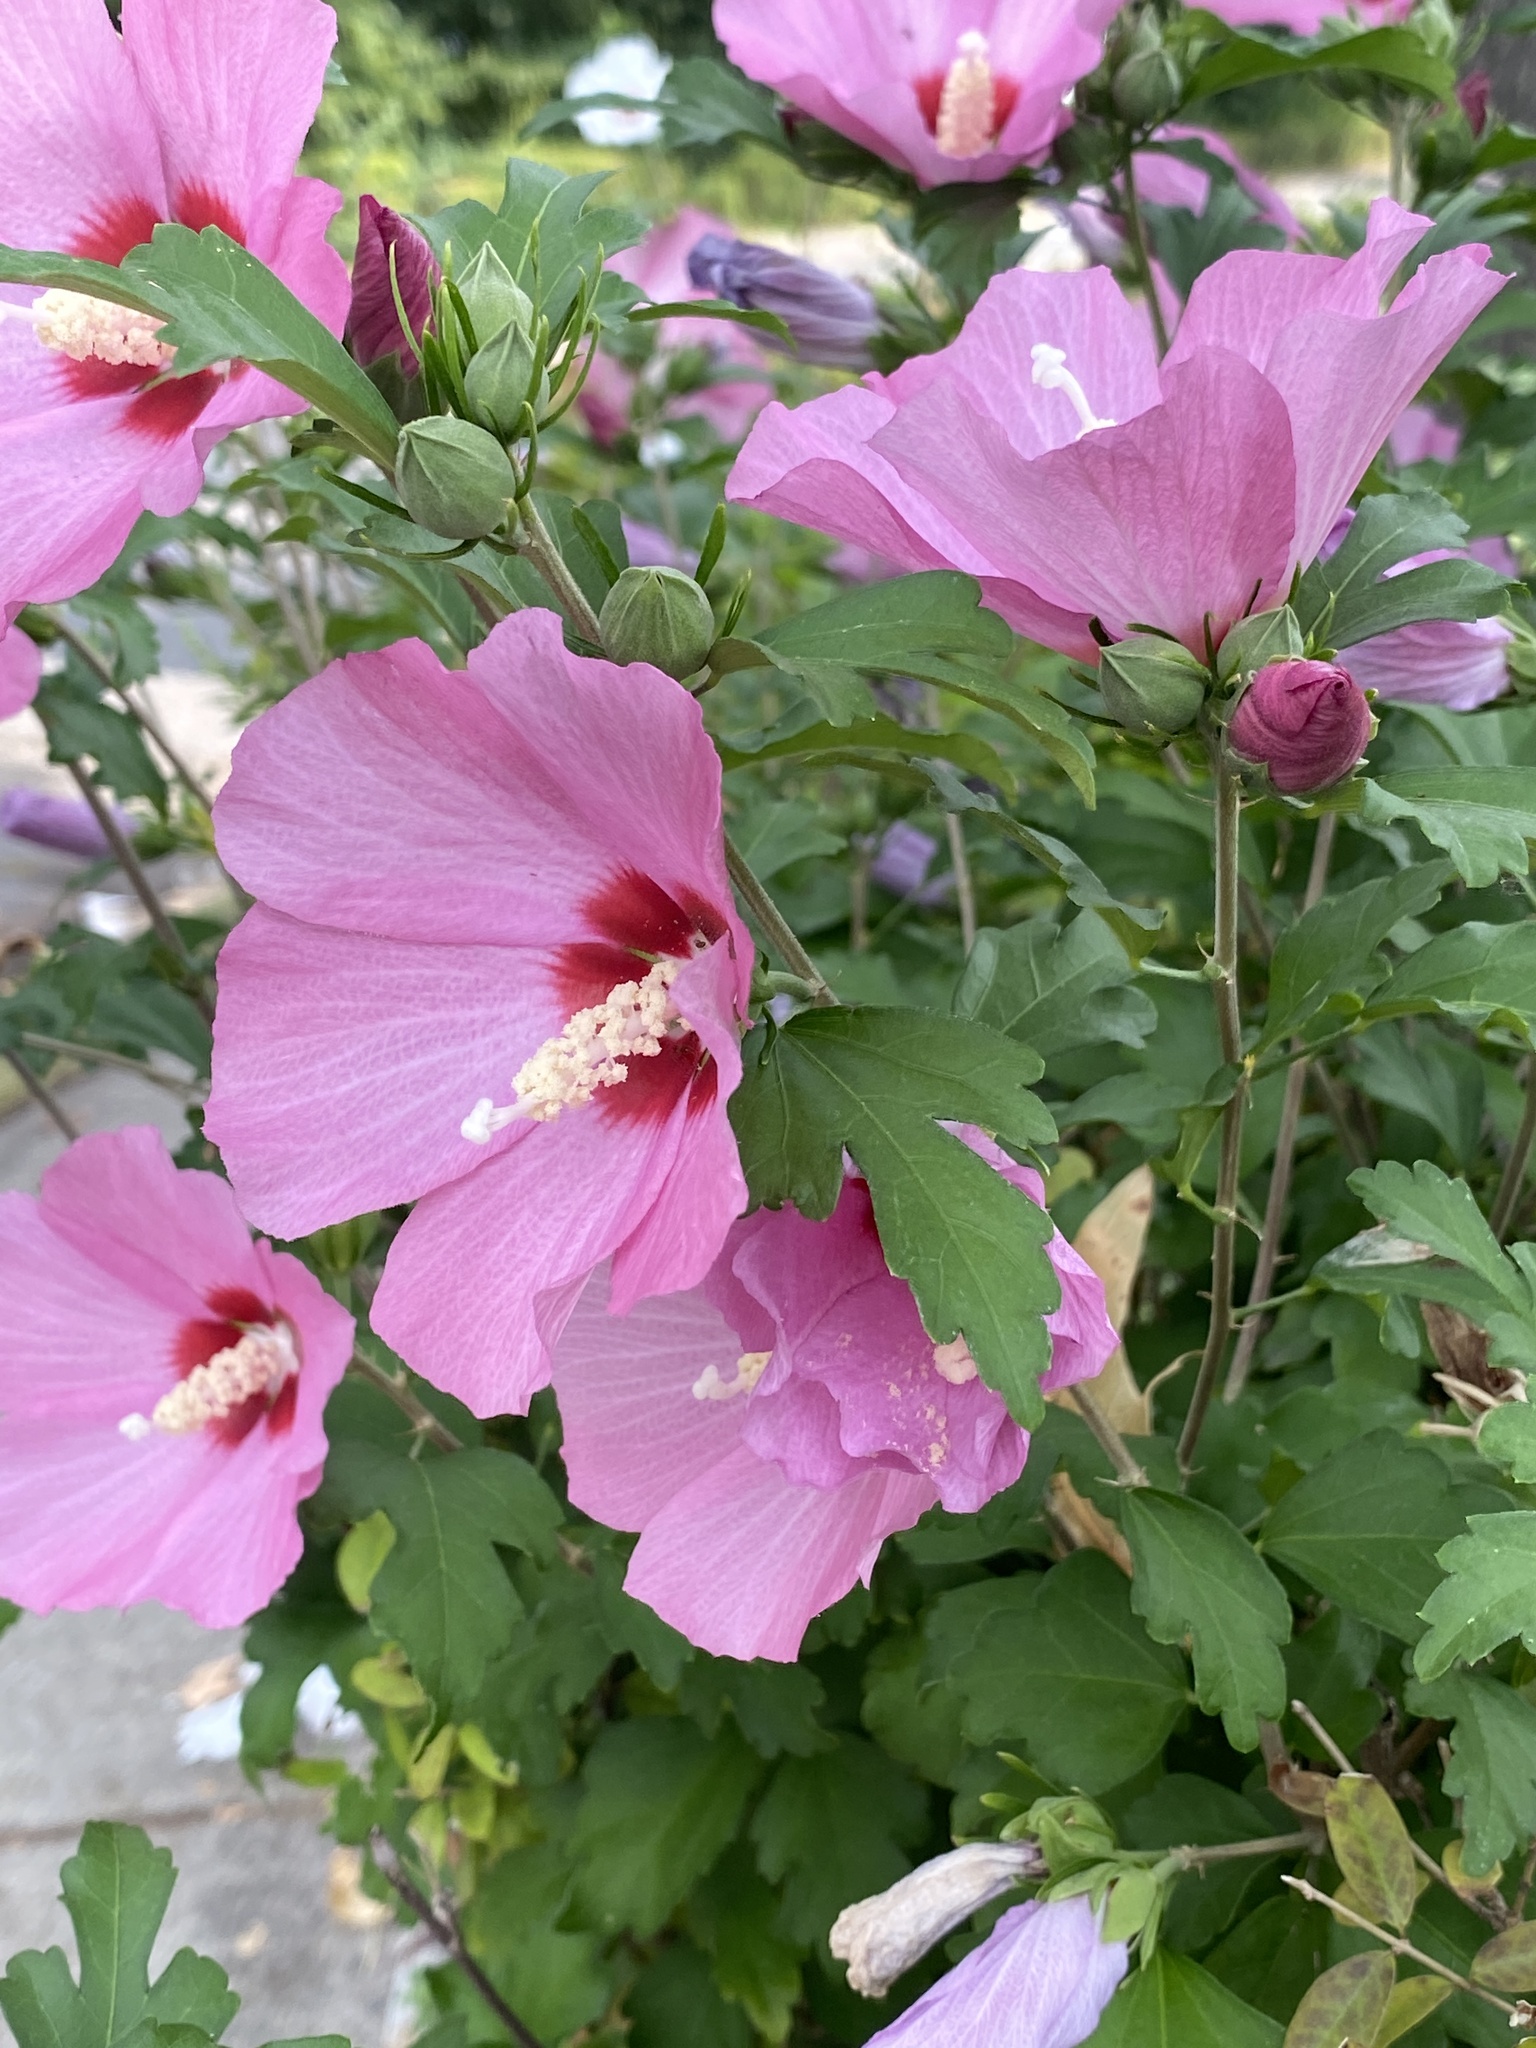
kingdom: Plantae
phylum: Tracheophyta
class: Magnoliopsida
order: Malvales
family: Malvaceae
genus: Hibiscus
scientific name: Hibiscus syriacus
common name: Syrian ketmia
